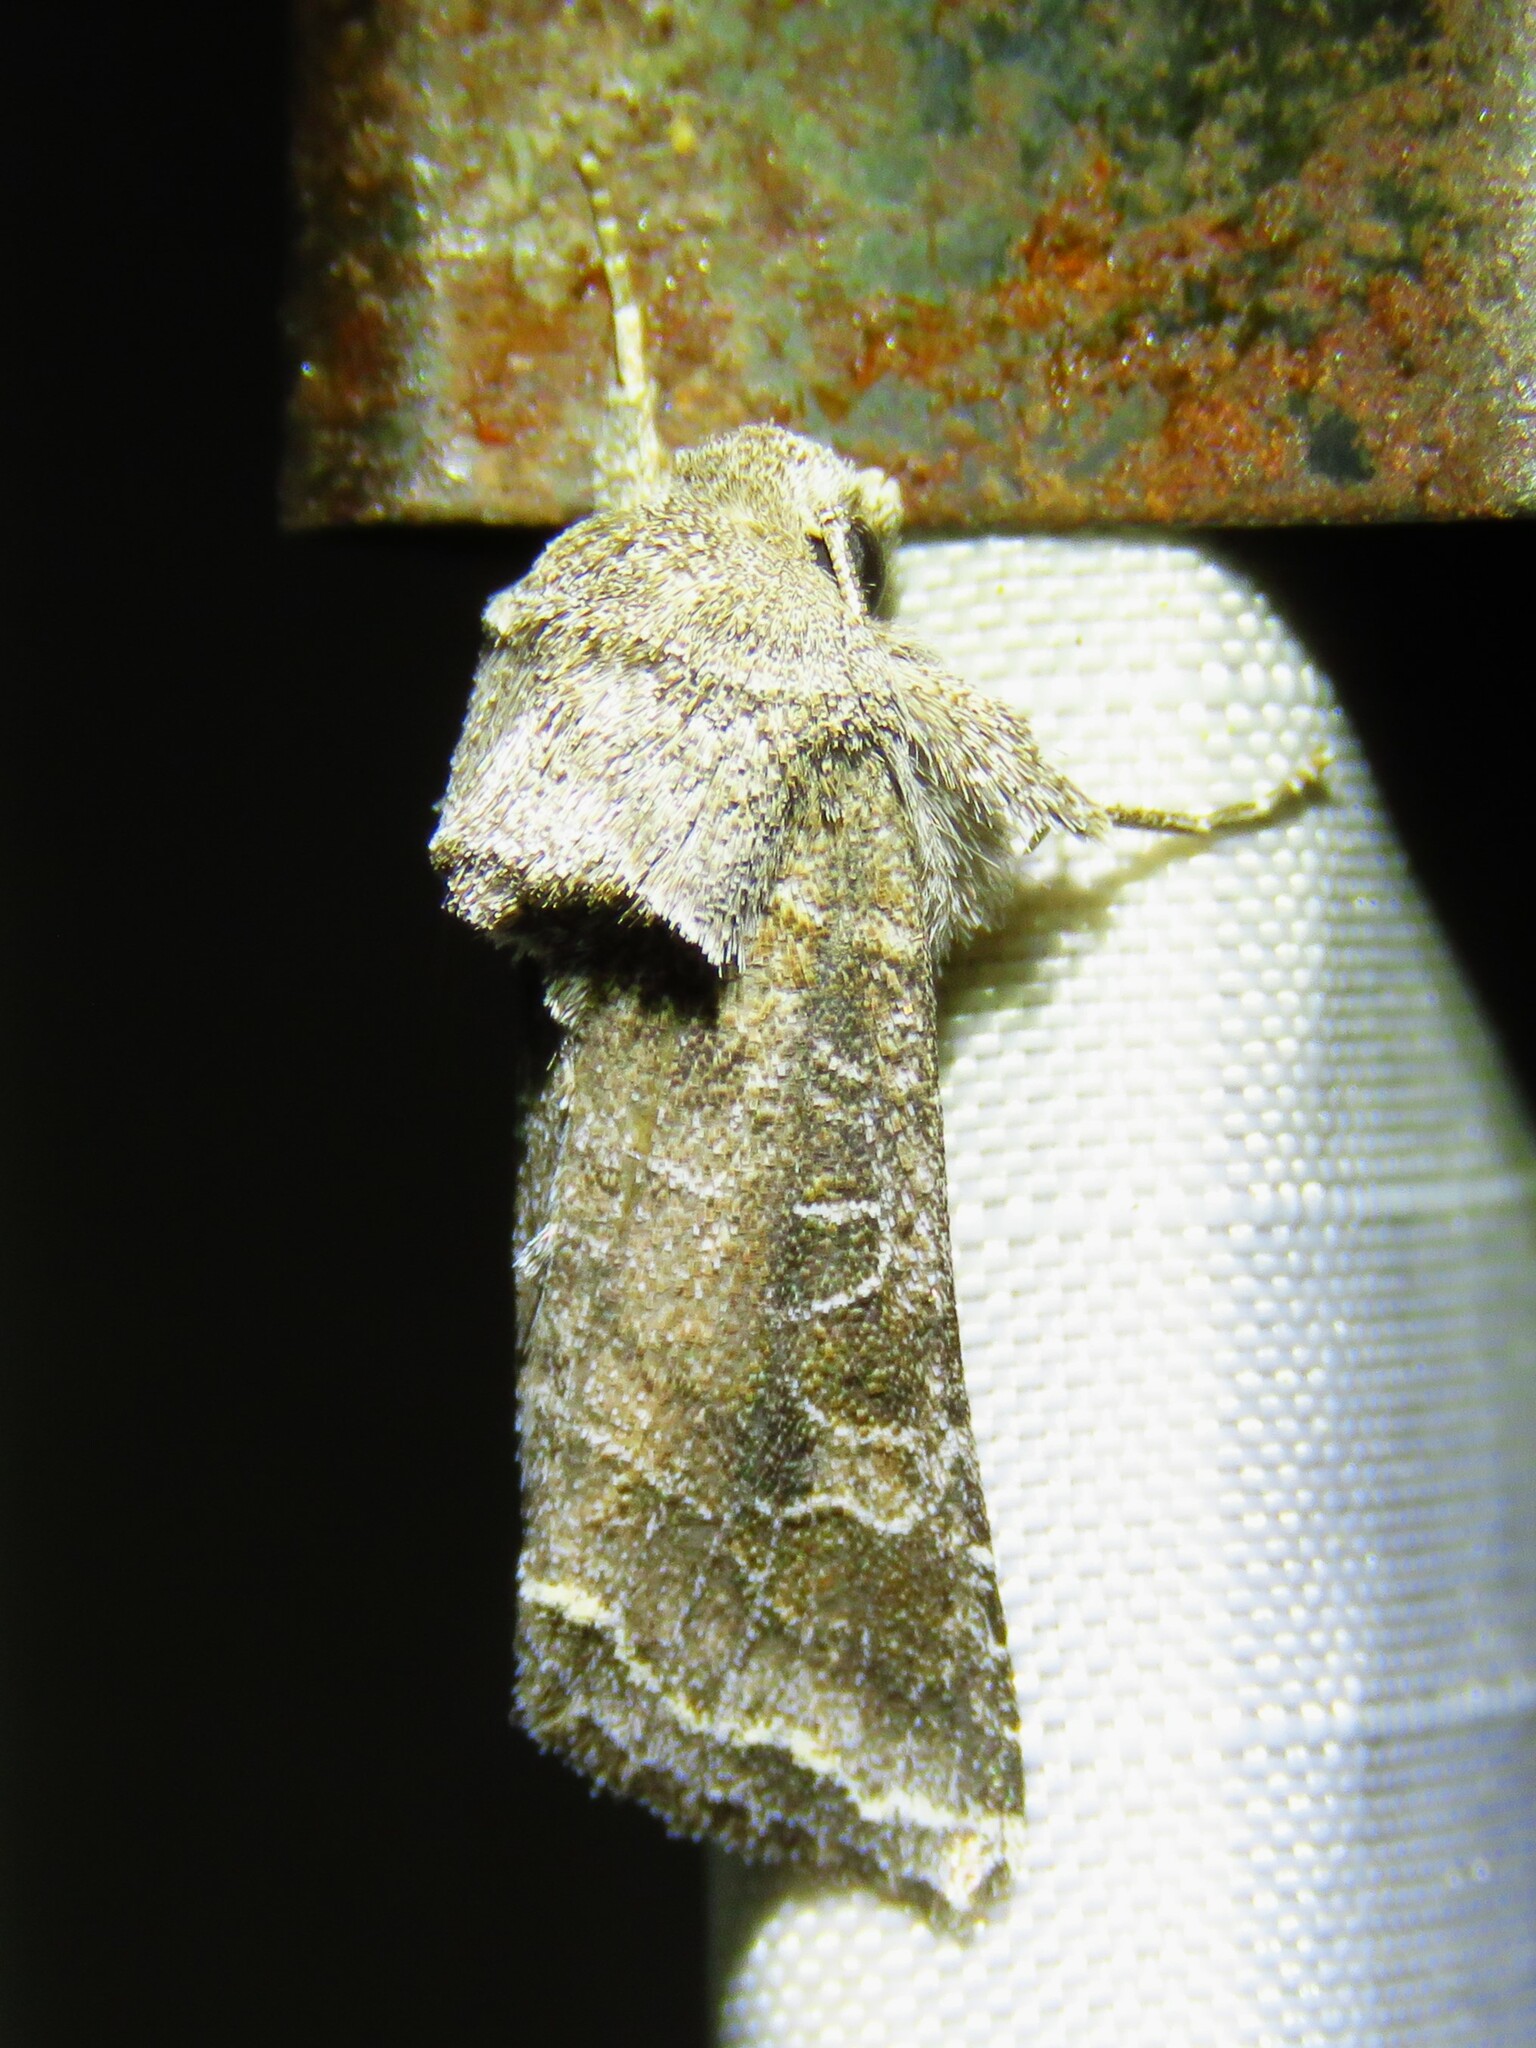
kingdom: Animalia
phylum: Arthropoda
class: Insecta
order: Lepidoptera
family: Noctuidae
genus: Lacinipolia
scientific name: Lacinipolia erecta
